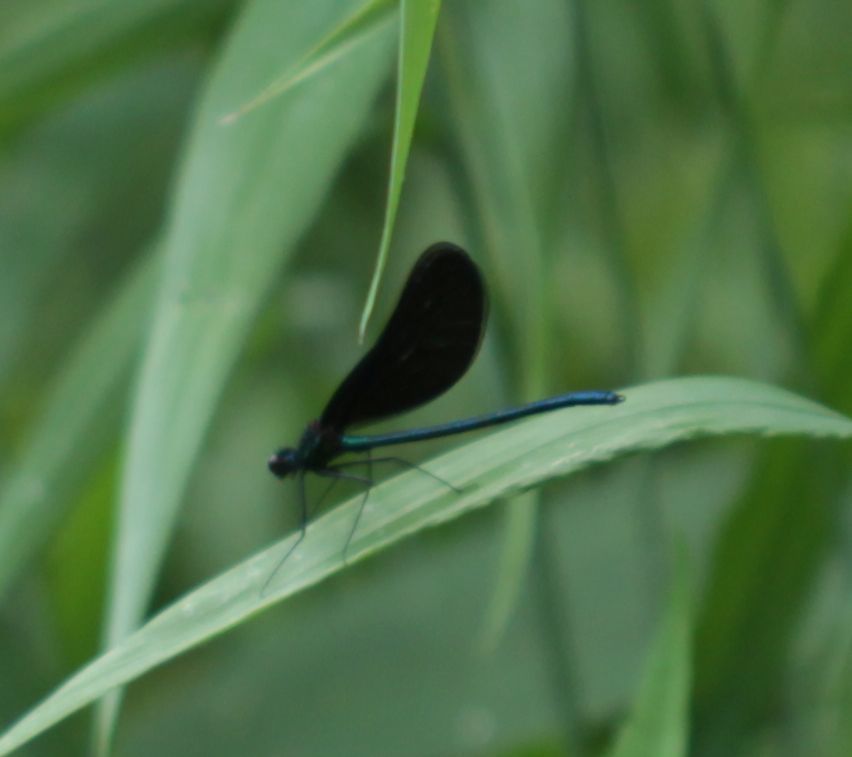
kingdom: Animalia
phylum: Arthropoda
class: Insecta
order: Odonata
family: Calopterygidae
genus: Calopteryx
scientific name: Calopteryx maculata
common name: Ebony jewelwing
